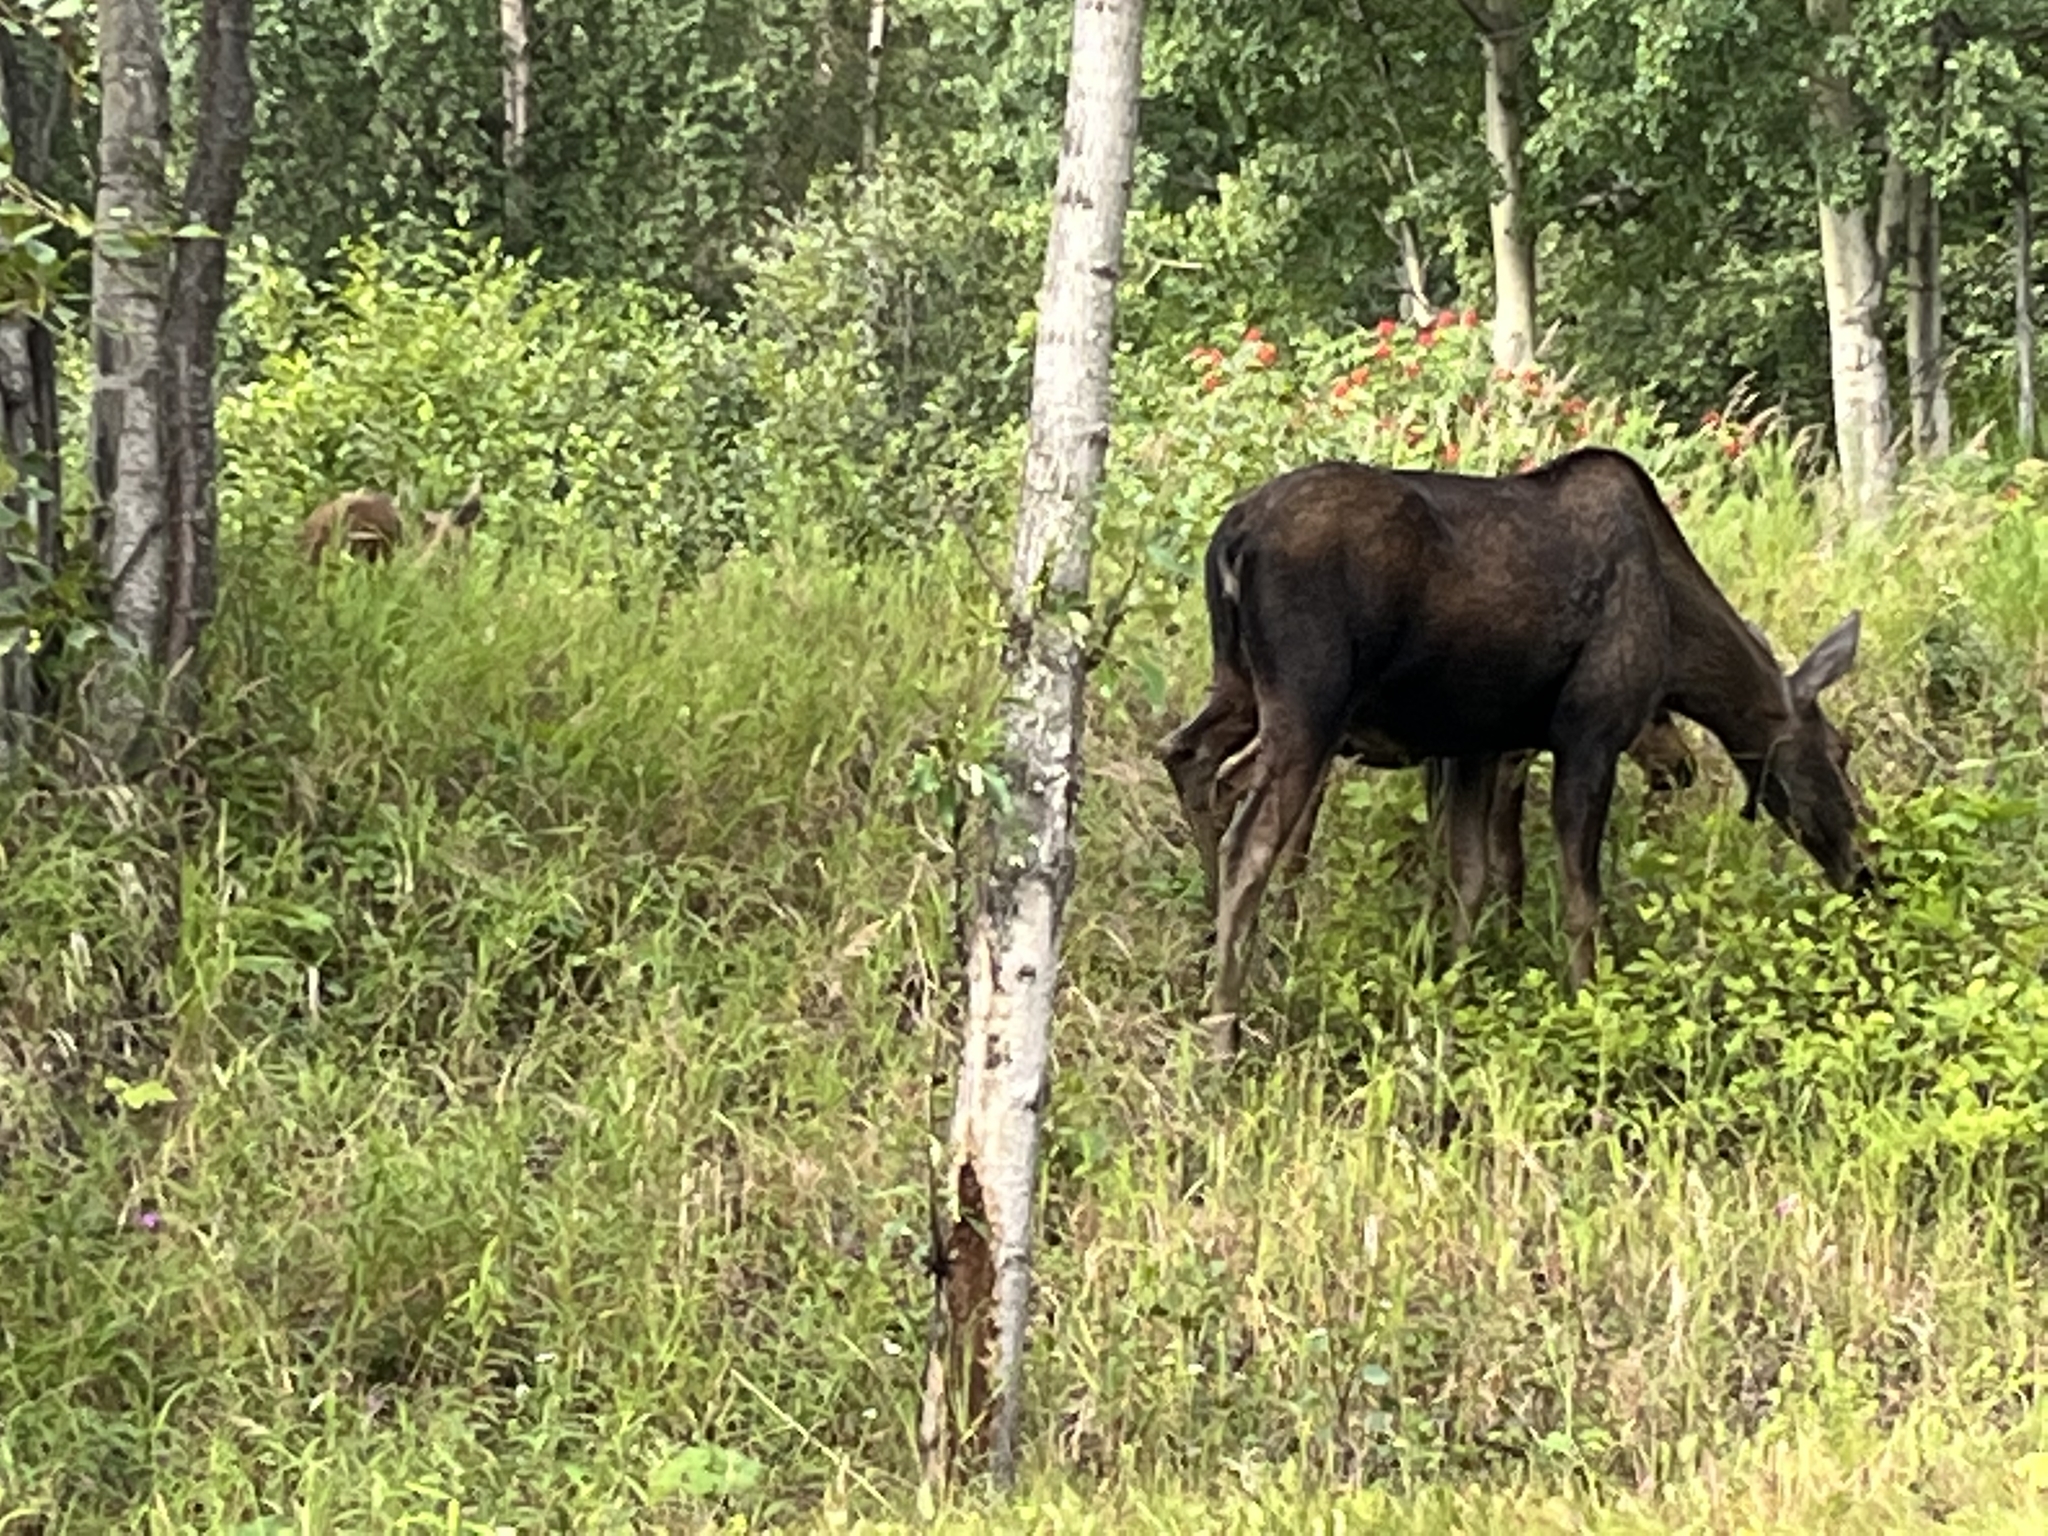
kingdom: Animalia
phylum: Chordata
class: Mammalia
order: Artiodactyla
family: Cervidae
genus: Alces
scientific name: Alces alces
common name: Moose
